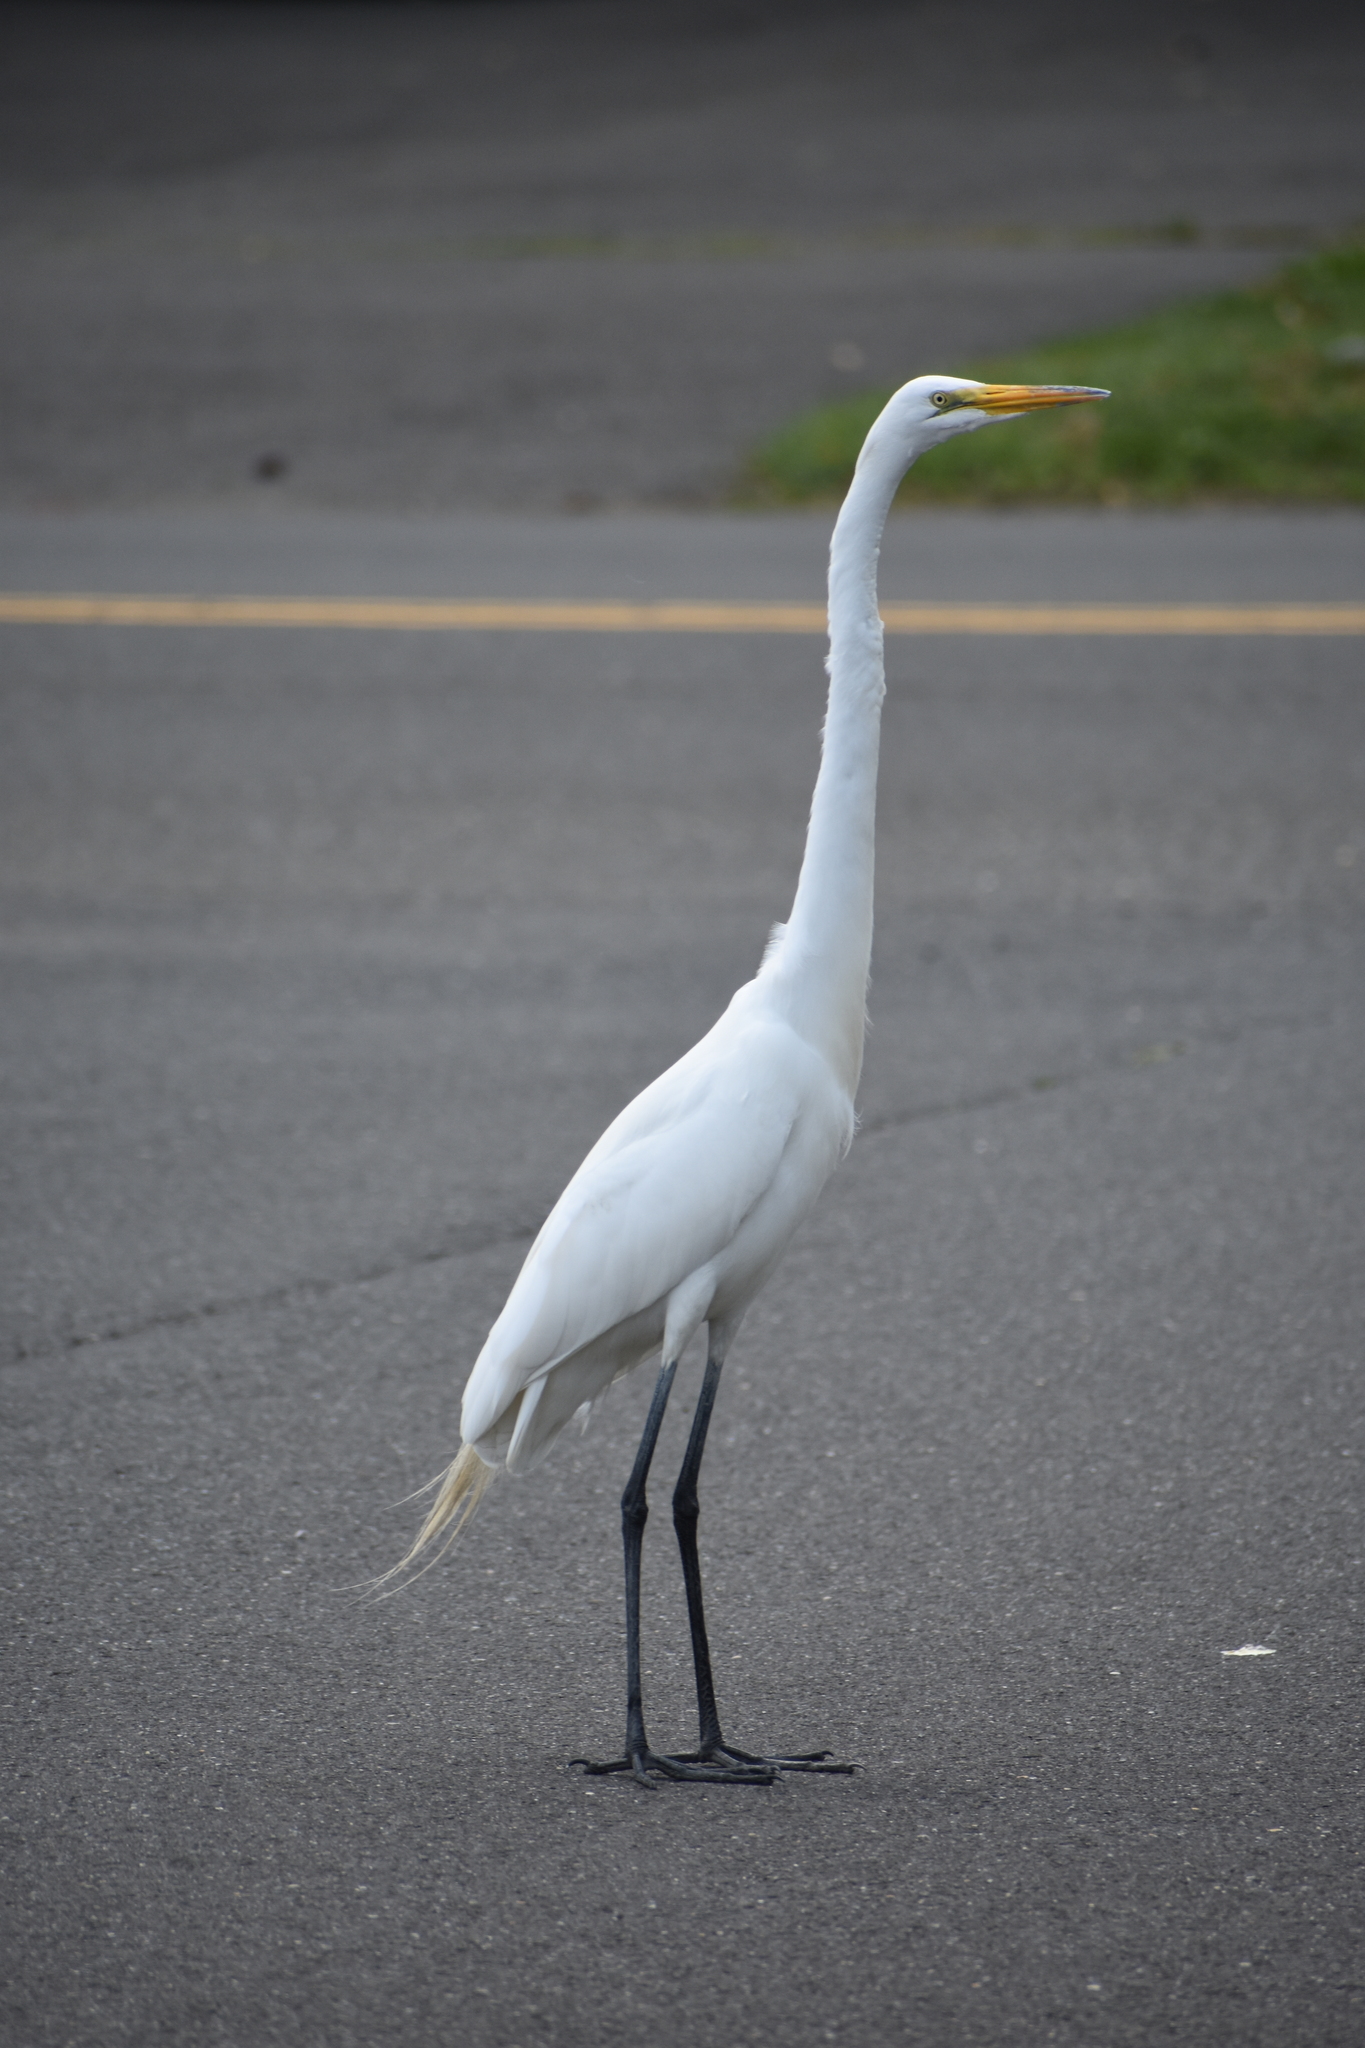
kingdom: Animalia
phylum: Chordata
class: Aves
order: Pelecaniformes
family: Ardeidae
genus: Ardea
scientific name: Ardea alba
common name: Great egret
